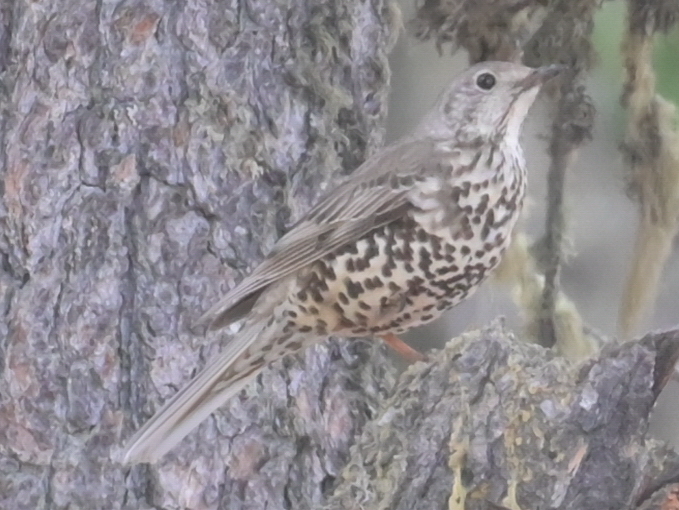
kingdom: Animalia
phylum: Chordata
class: Aves
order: Passeriformes
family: Turdidae
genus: Turdus
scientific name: Turdus viscivorus
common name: Mistle thrush
